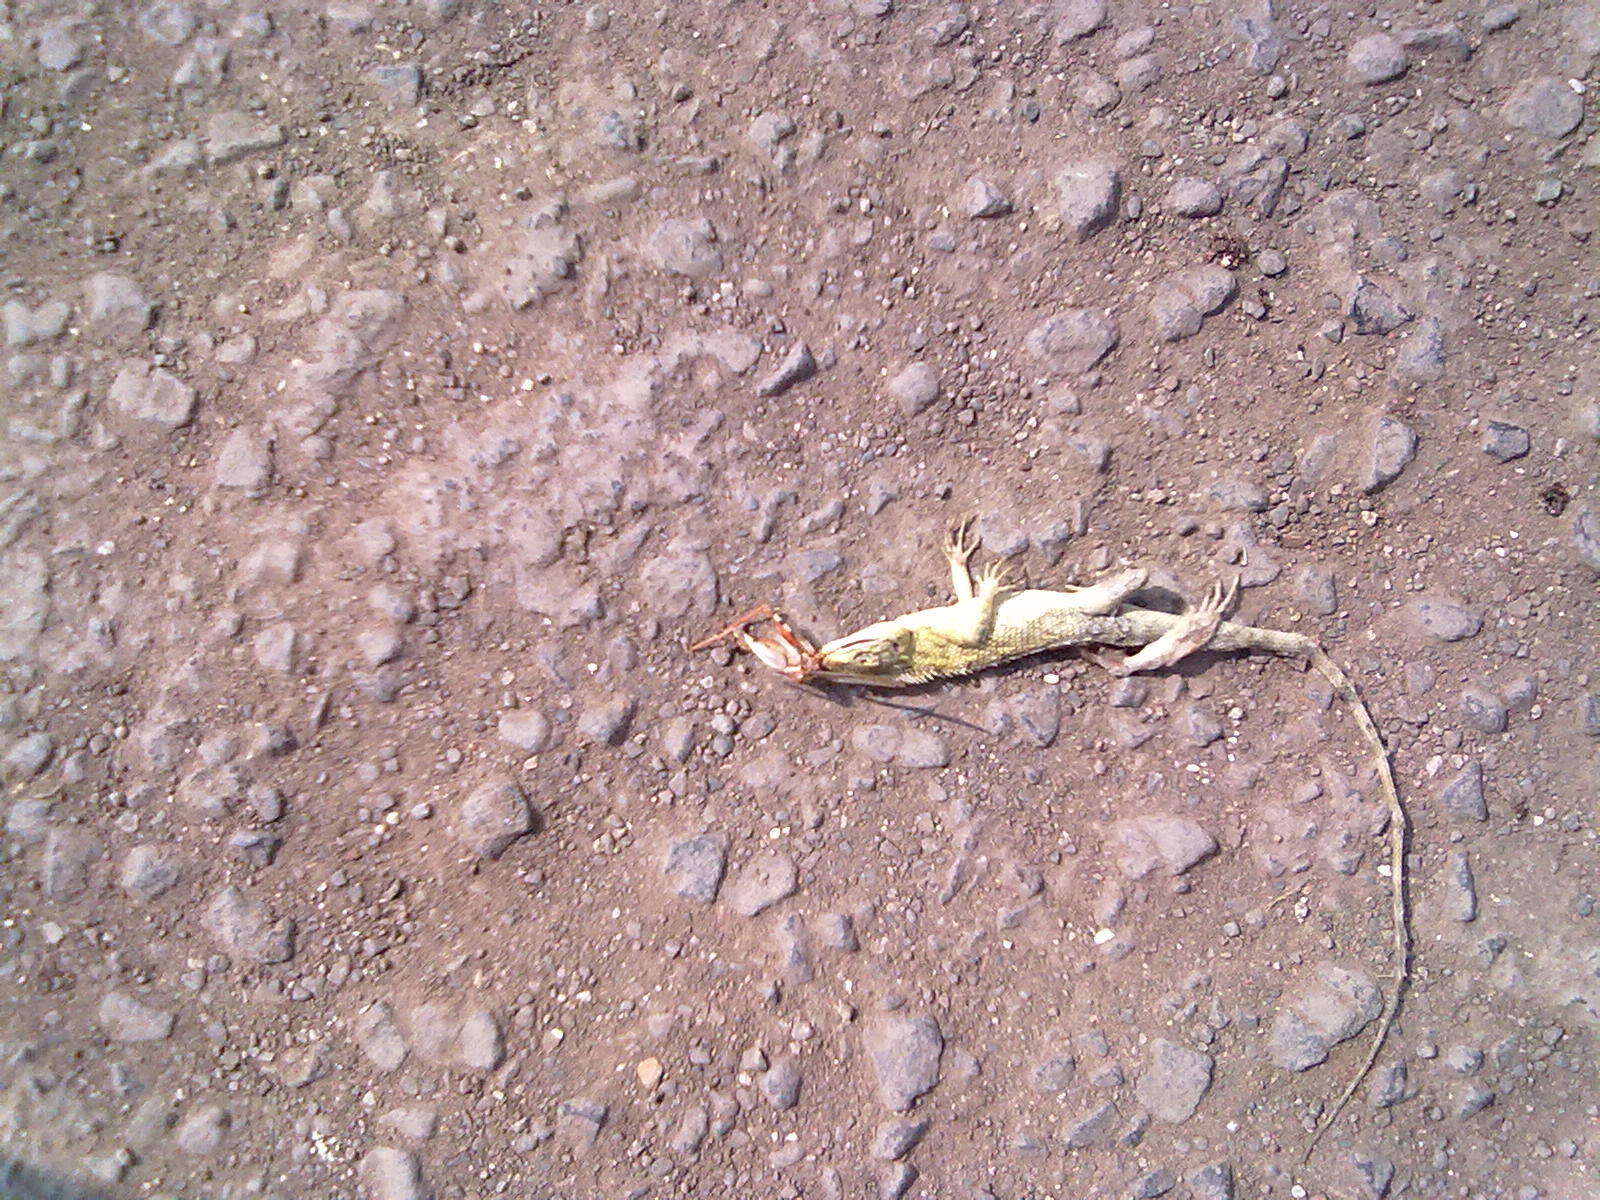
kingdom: Animalia
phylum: Chordata
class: Squamata
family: Agamidae
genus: Calotes
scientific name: Calotes versicolor
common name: Oriental garden lizard
